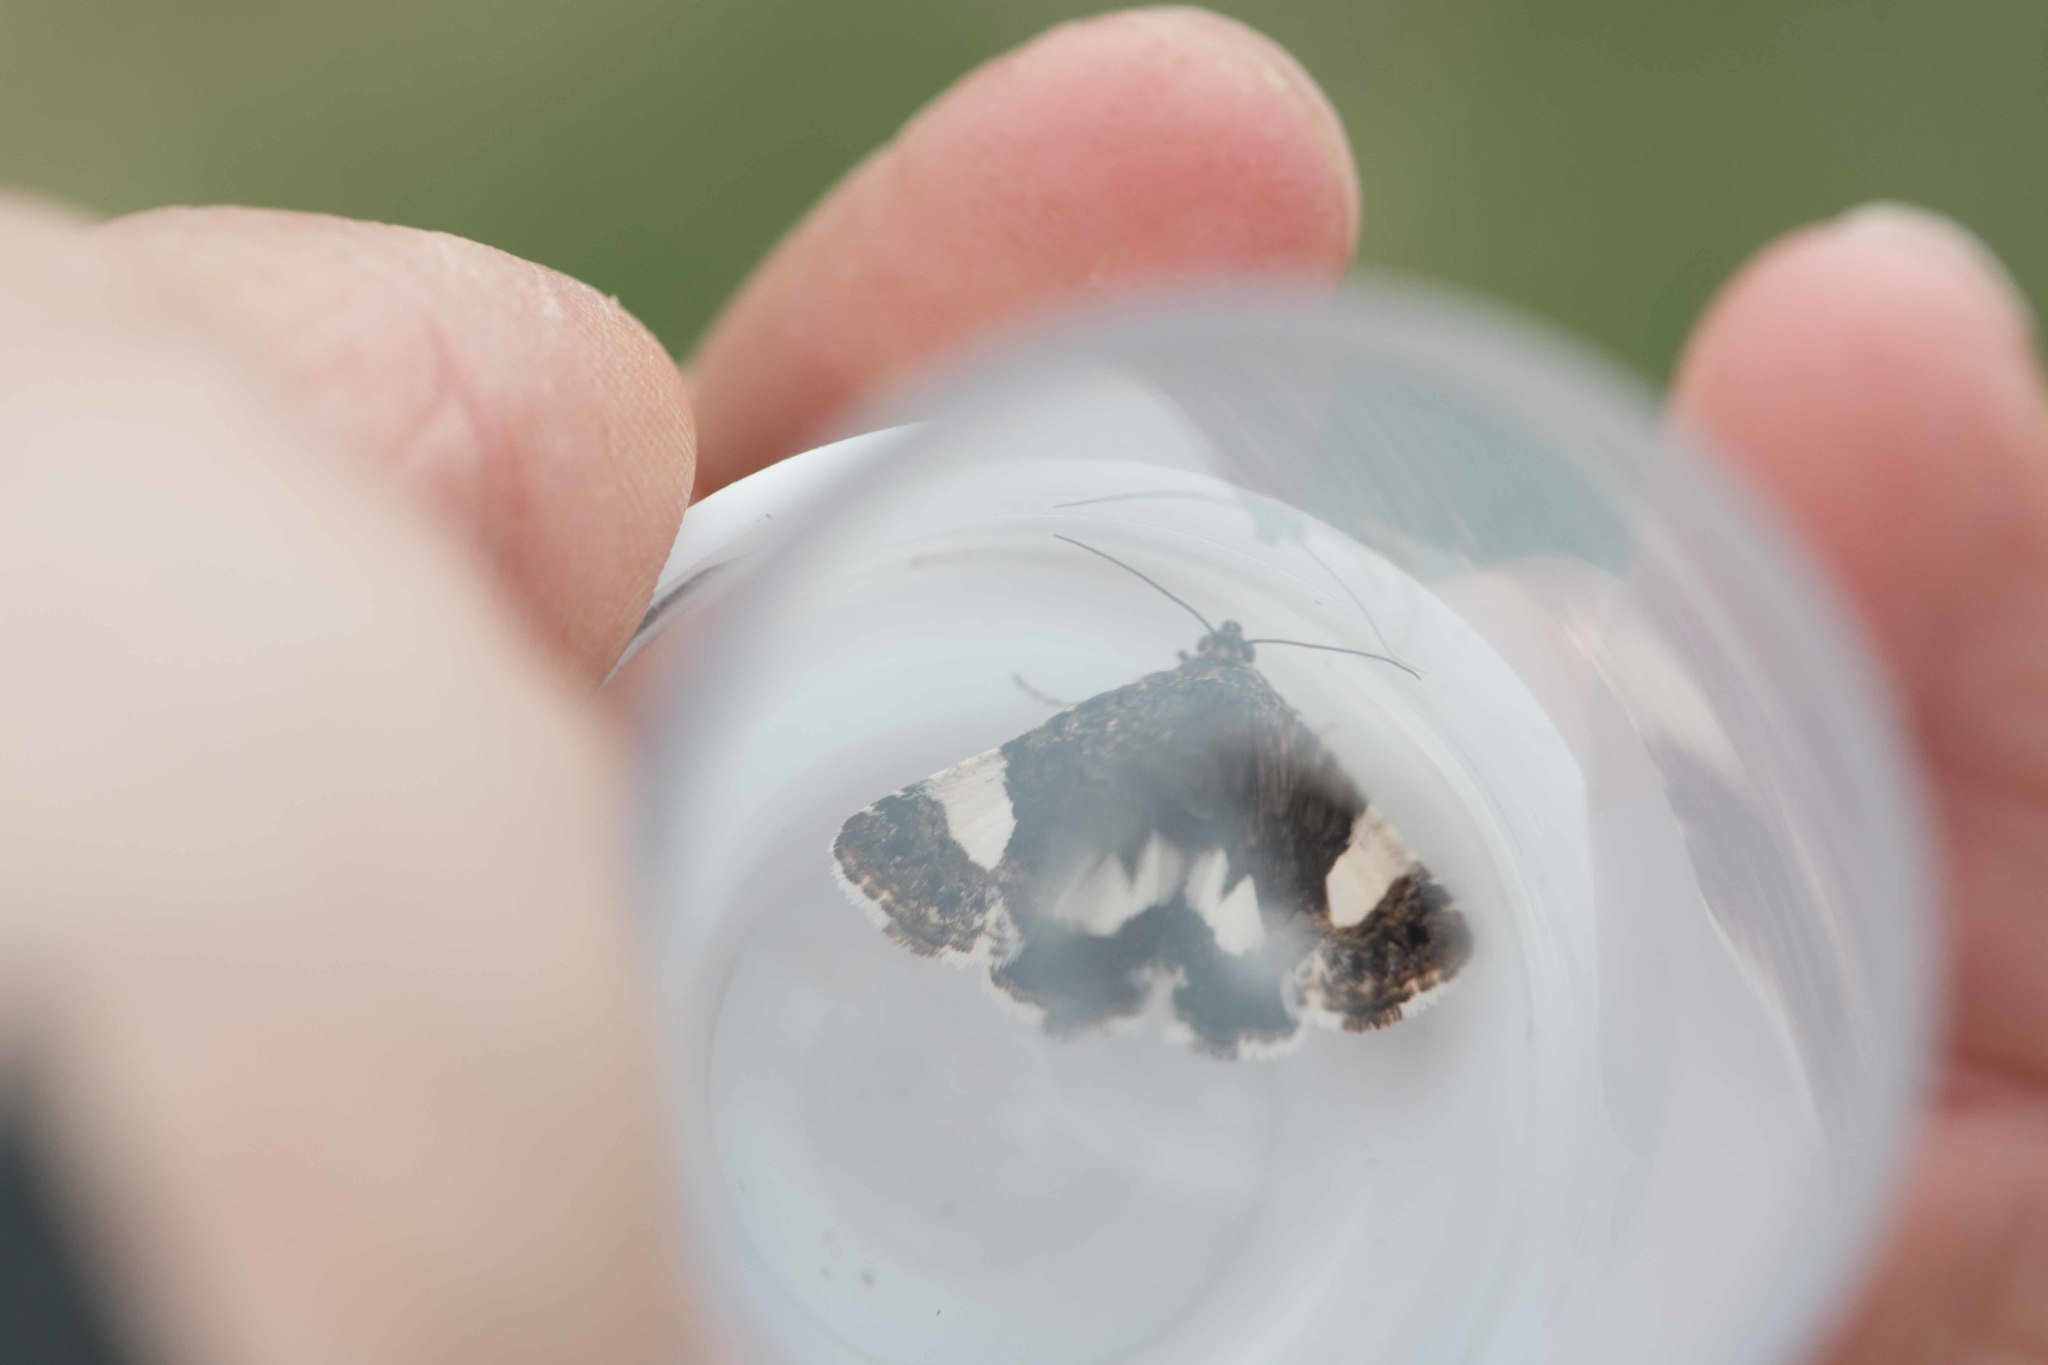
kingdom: Animalia
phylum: Arthropoda
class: Insecta
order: Lepidoptera
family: Erebidae
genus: Tyta
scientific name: Tyta luctuosa
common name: Four-spotted
